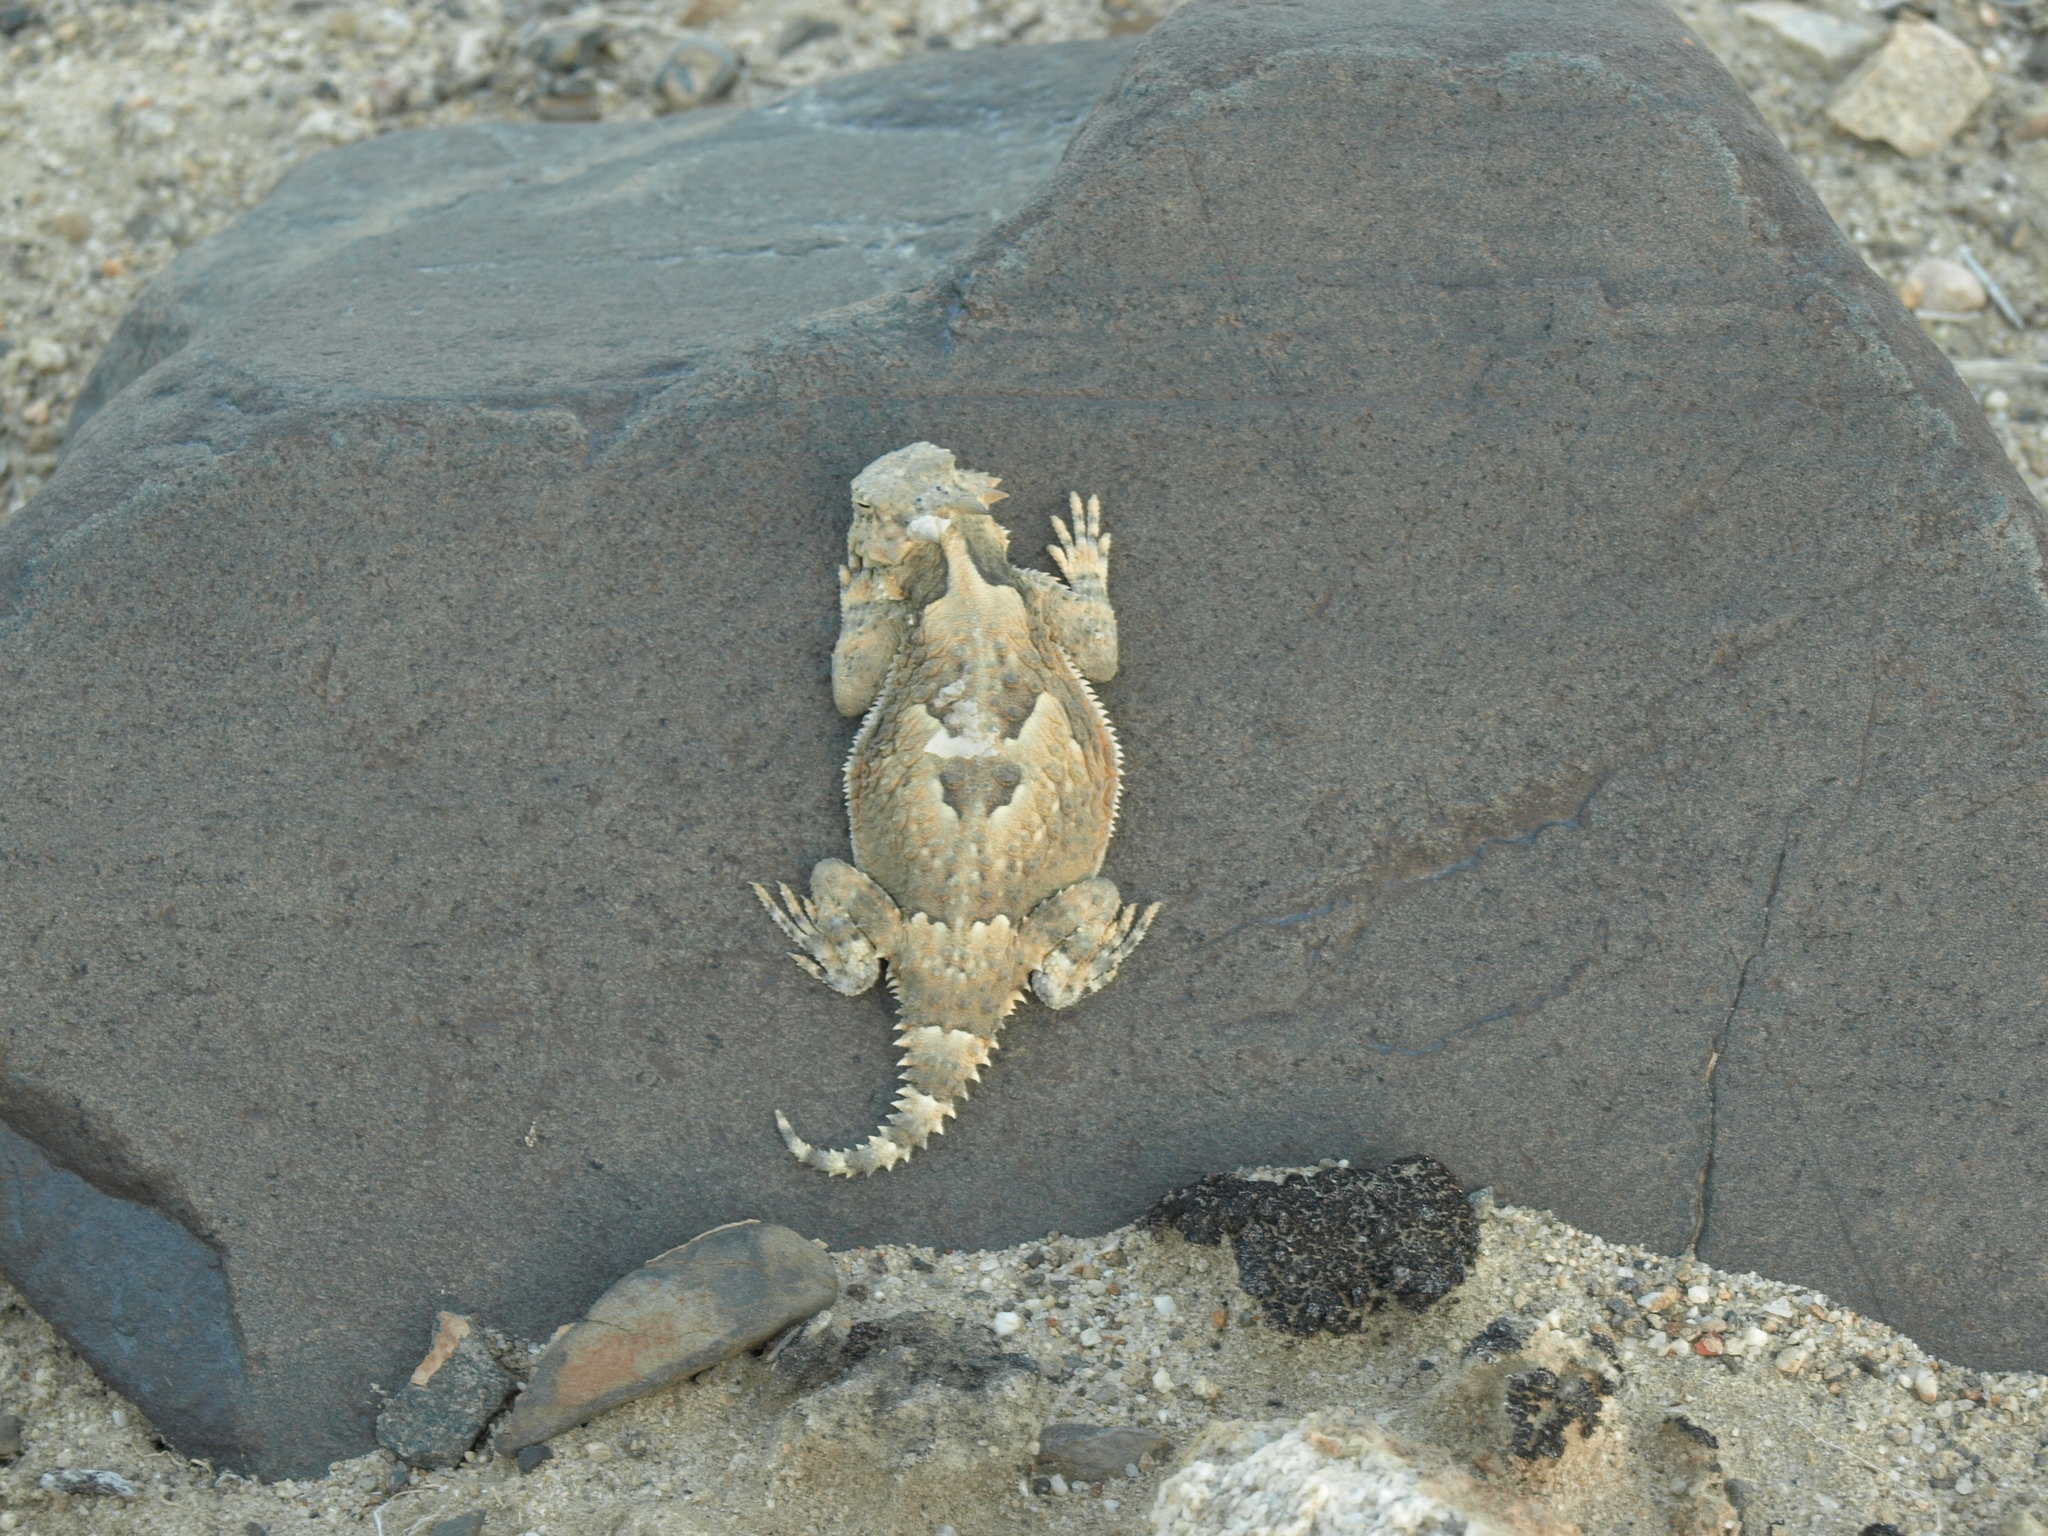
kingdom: Animalia
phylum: Chordata
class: Squamata
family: Phrynosomatidae
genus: Phrynosoma
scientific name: Phrynosoma platyrhinos
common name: Desert horned lizard
